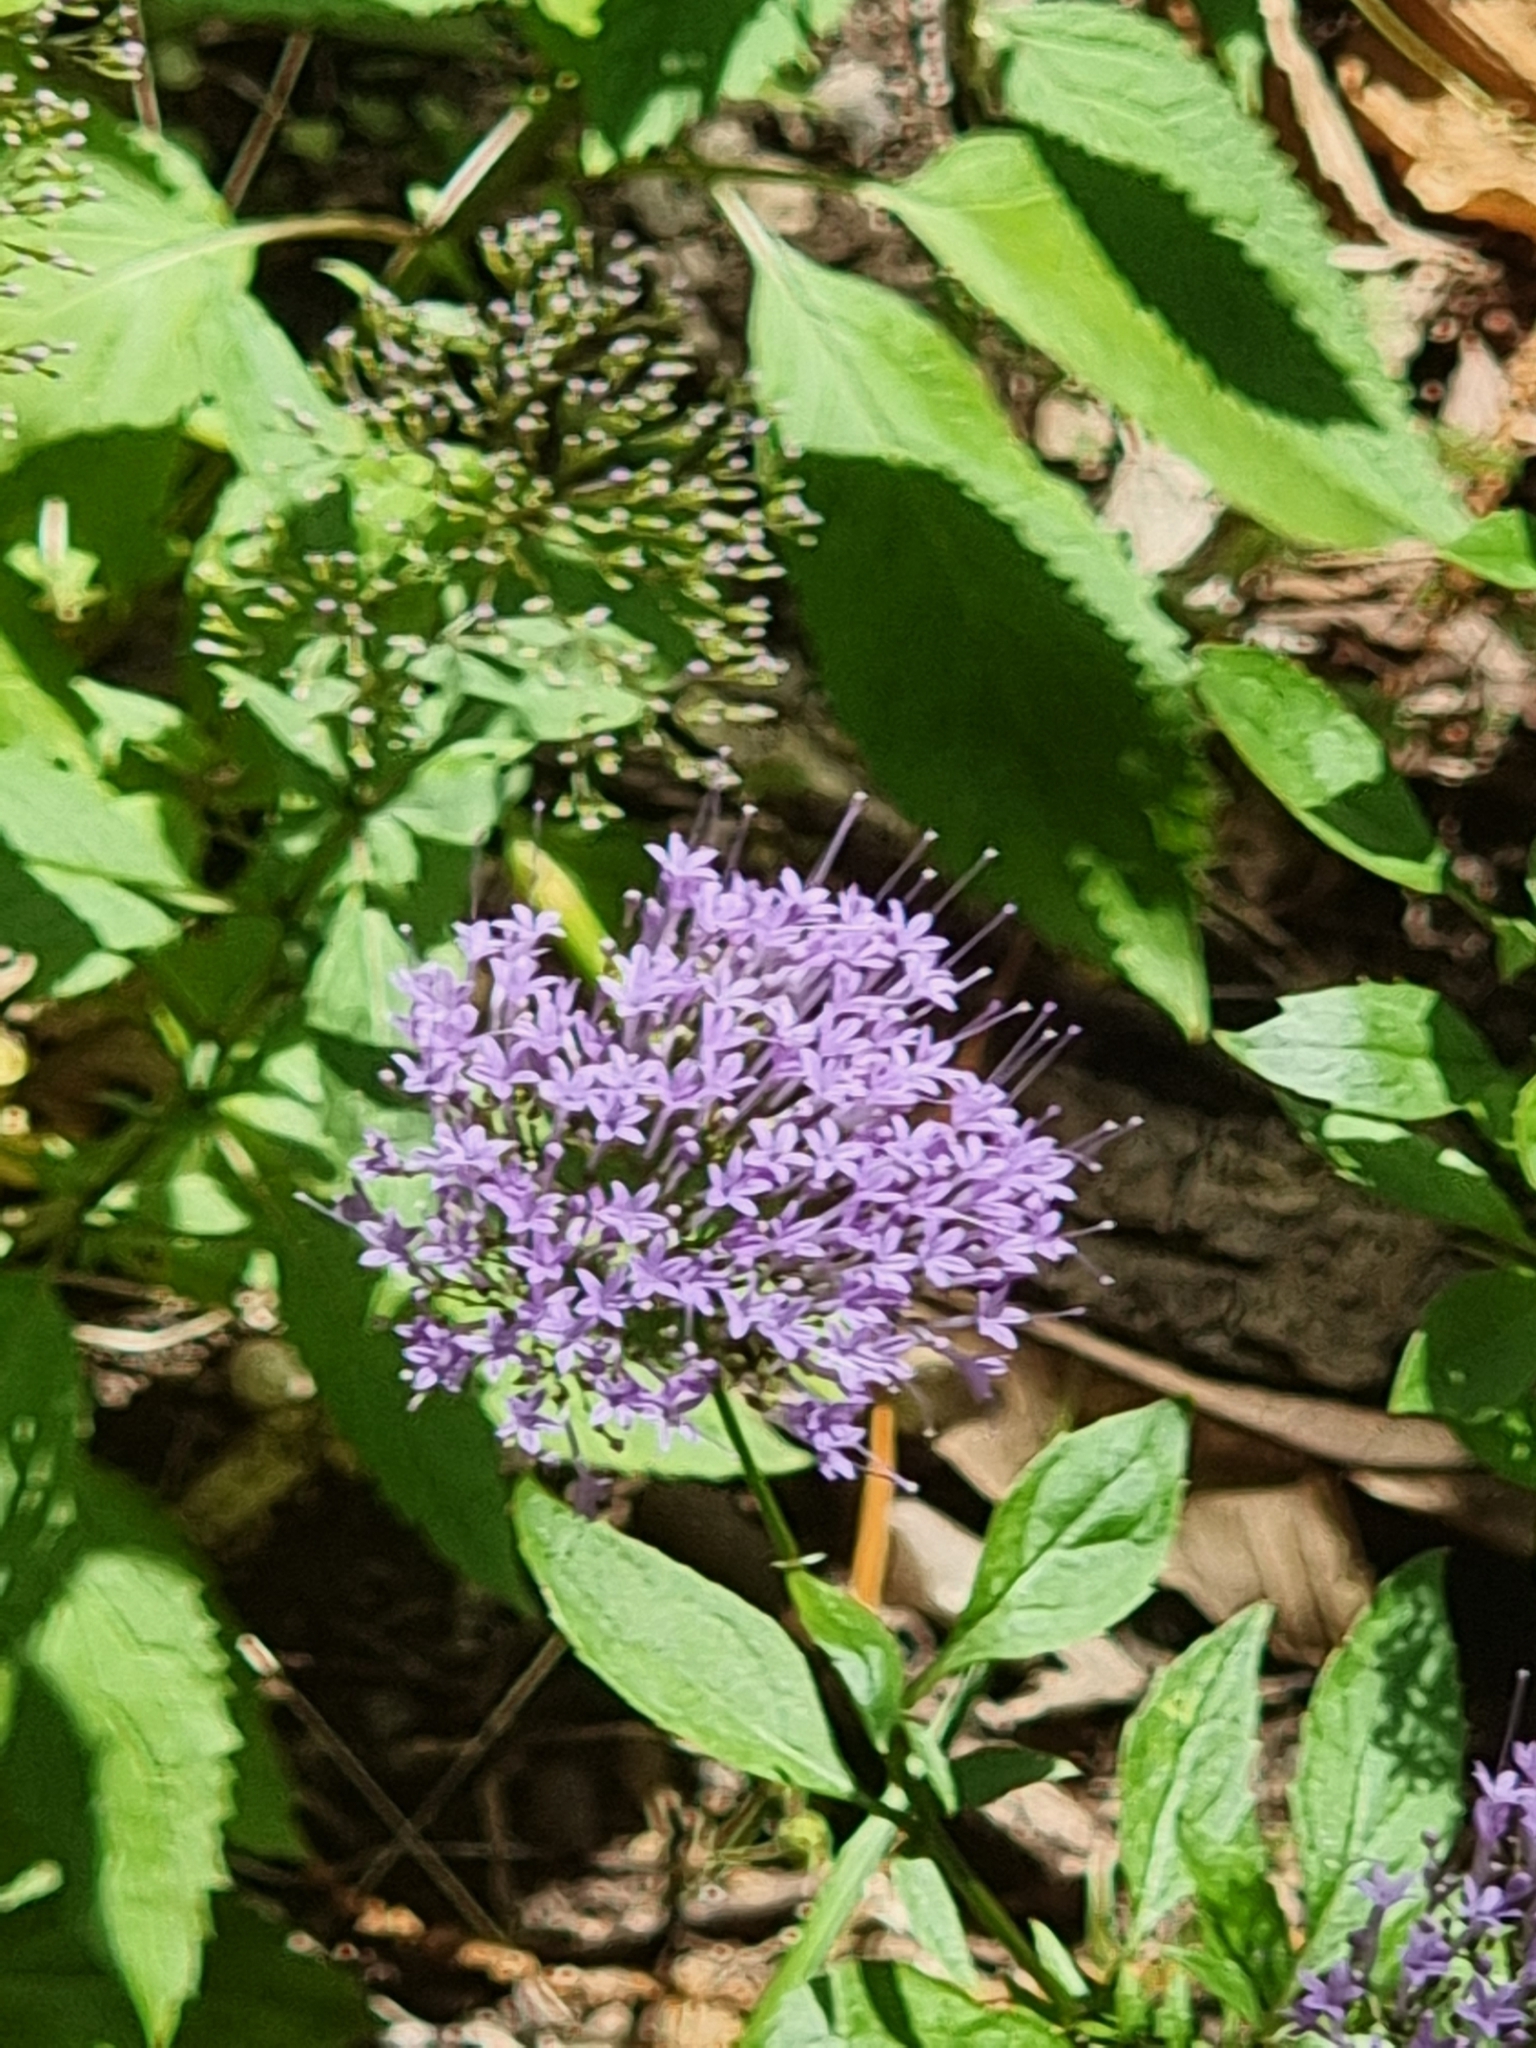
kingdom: Plantae
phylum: Tracheophyta
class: Magnoliopsida
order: Asterales
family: Campanulaceae
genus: Trachelium
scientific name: Trachelium caeruleum
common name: Throatwort
